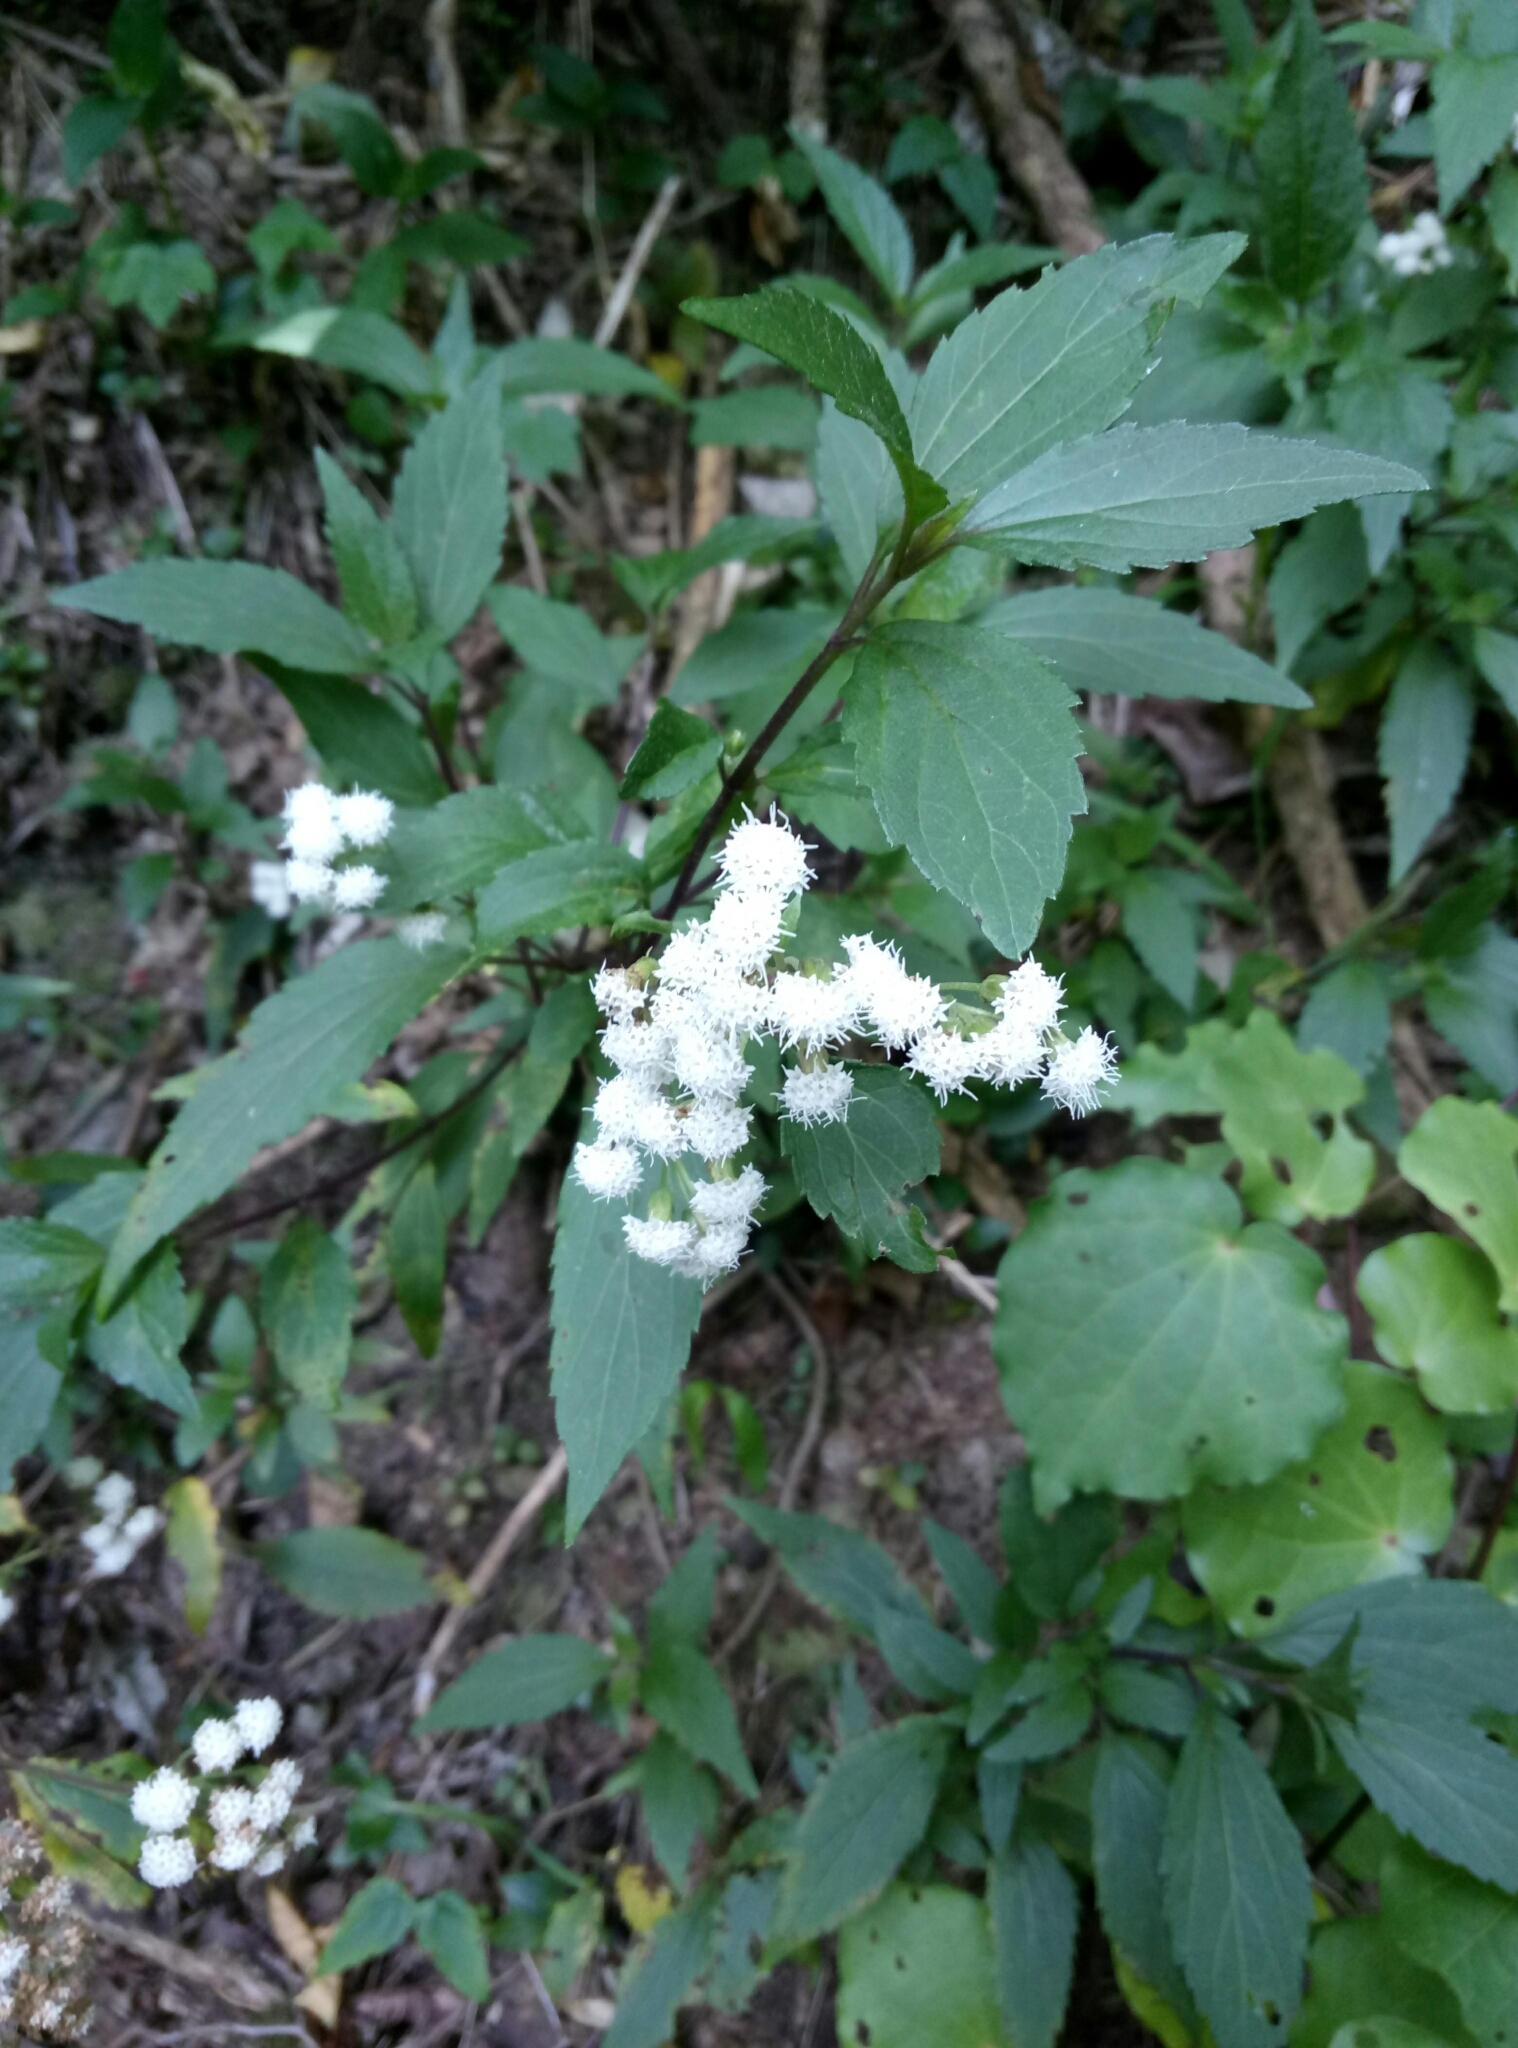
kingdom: Plantae
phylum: Tracheophyta
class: Magnoliopsida
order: Asterales
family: Asteraceae
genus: Ageratina
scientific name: Ageratina riparia
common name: Creeping croftonweed
